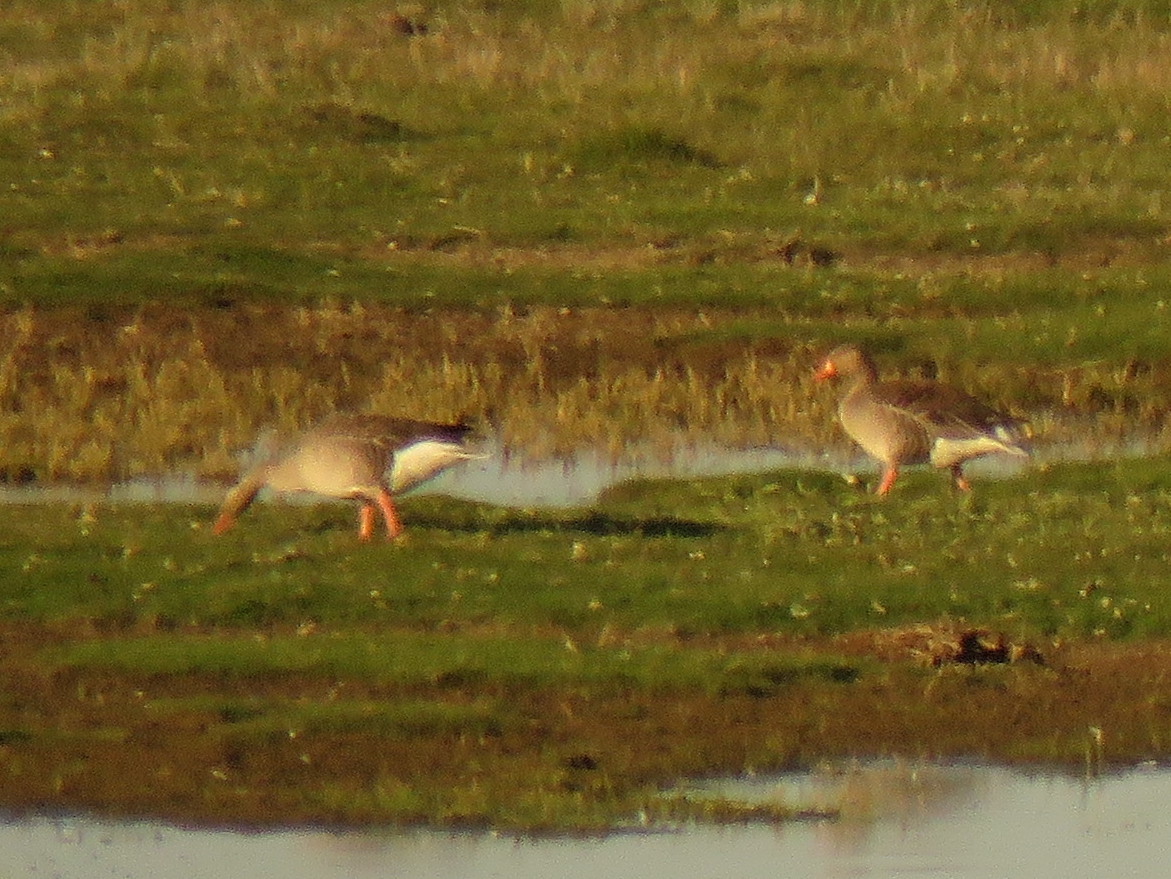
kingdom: Animalia
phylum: Chordata
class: Aves
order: Anseriformes
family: Anatidae
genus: Anser
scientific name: Anser anser
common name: Greylag goose
